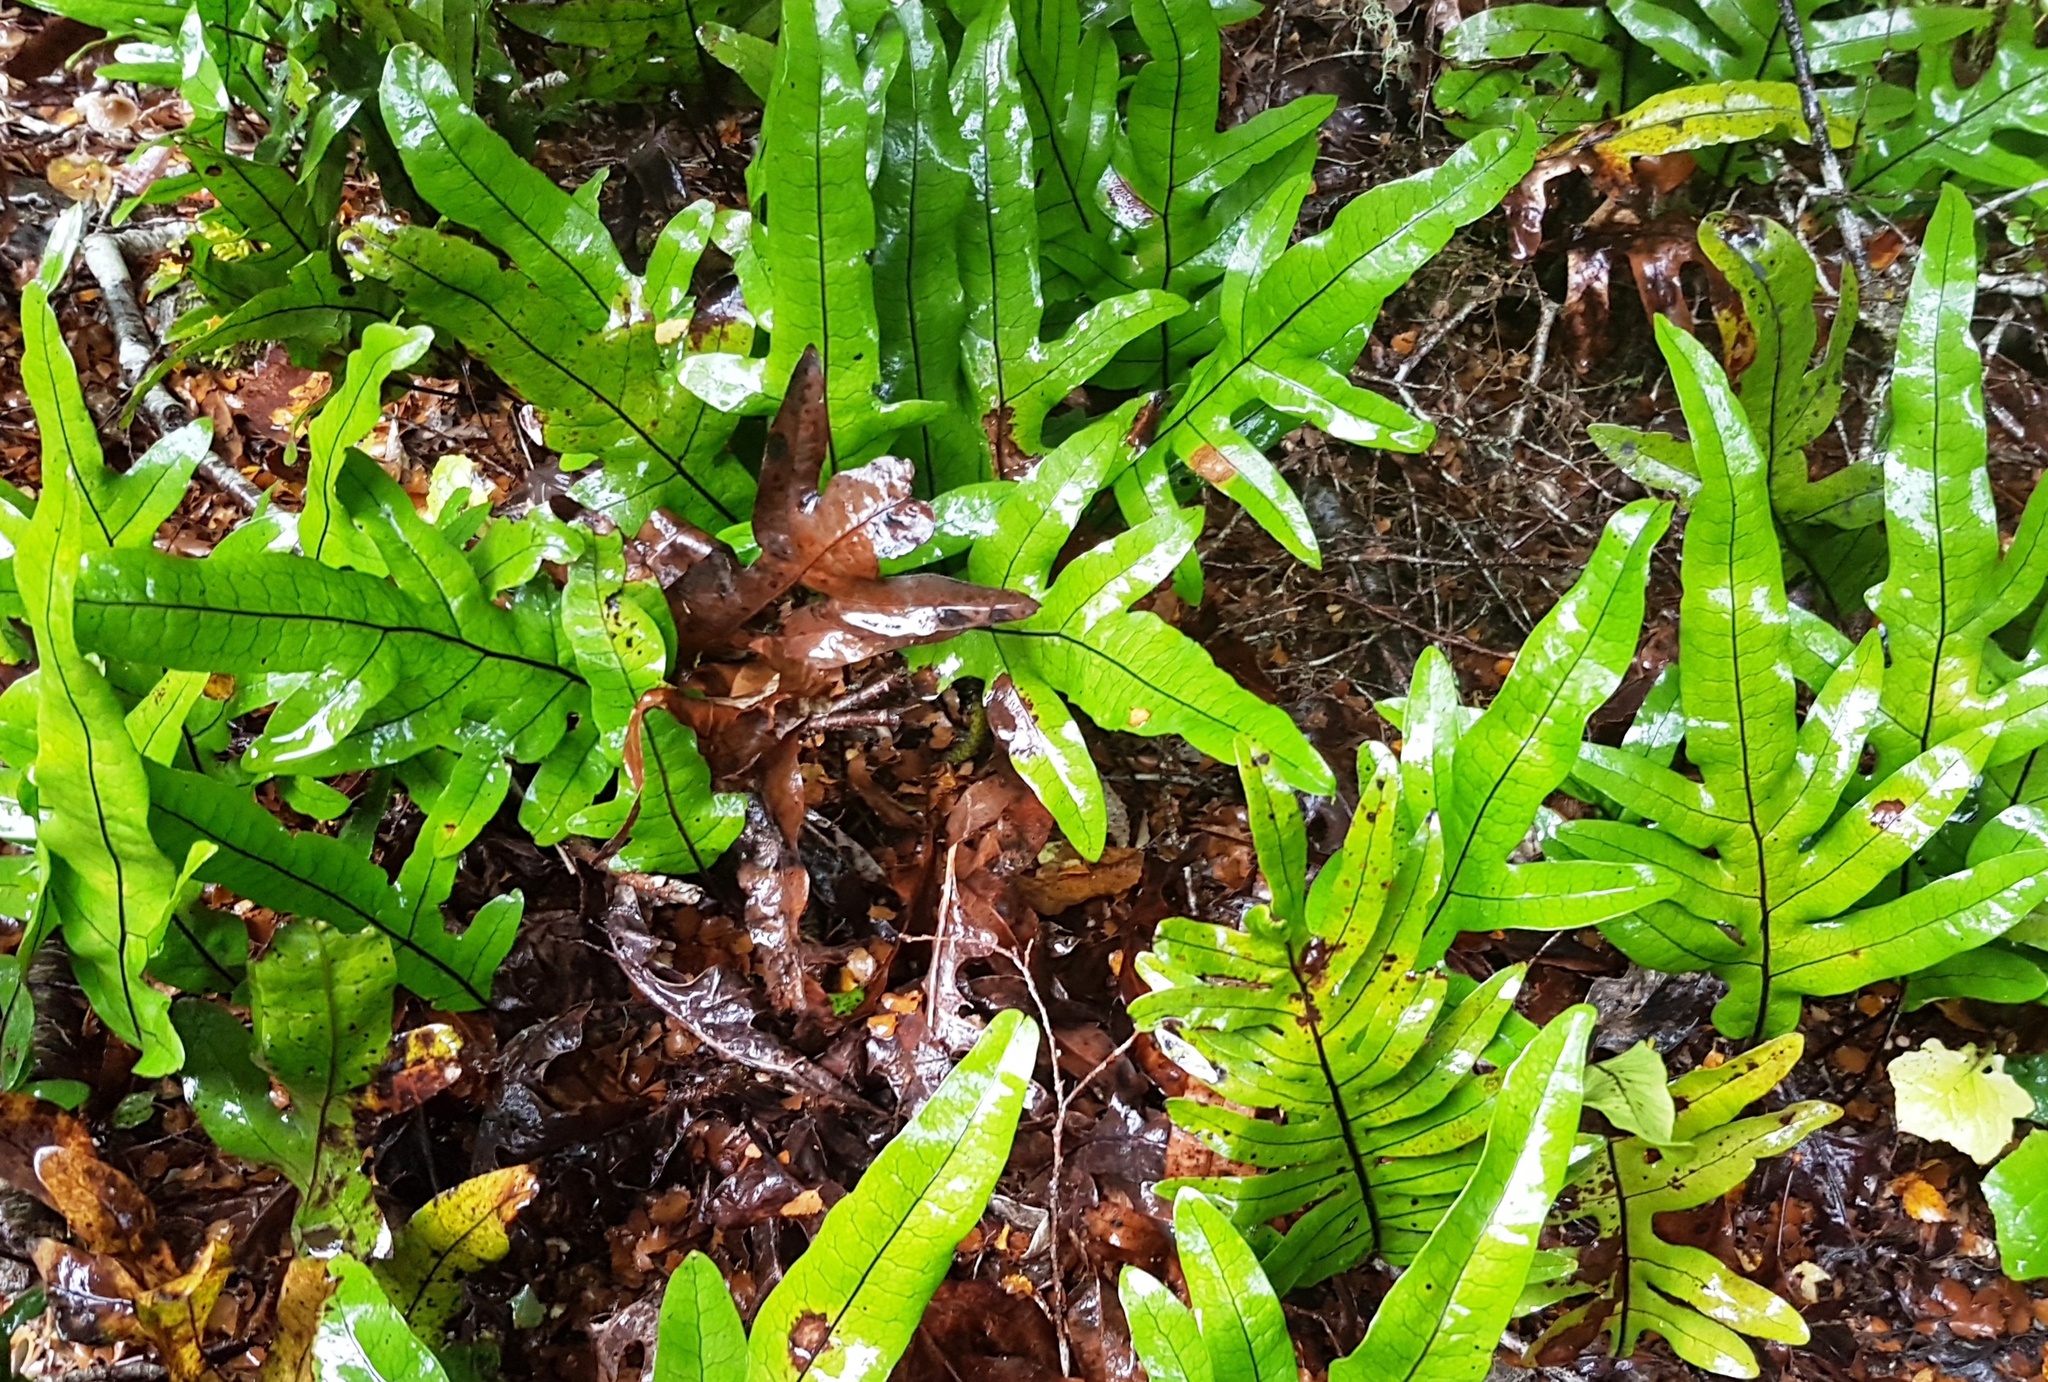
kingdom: Plantae
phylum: Tracheophyta
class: Polypodiopsida
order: Polypodiales
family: Polypodiaceae
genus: Lecanopteris
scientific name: Lecanopteris pustulata
